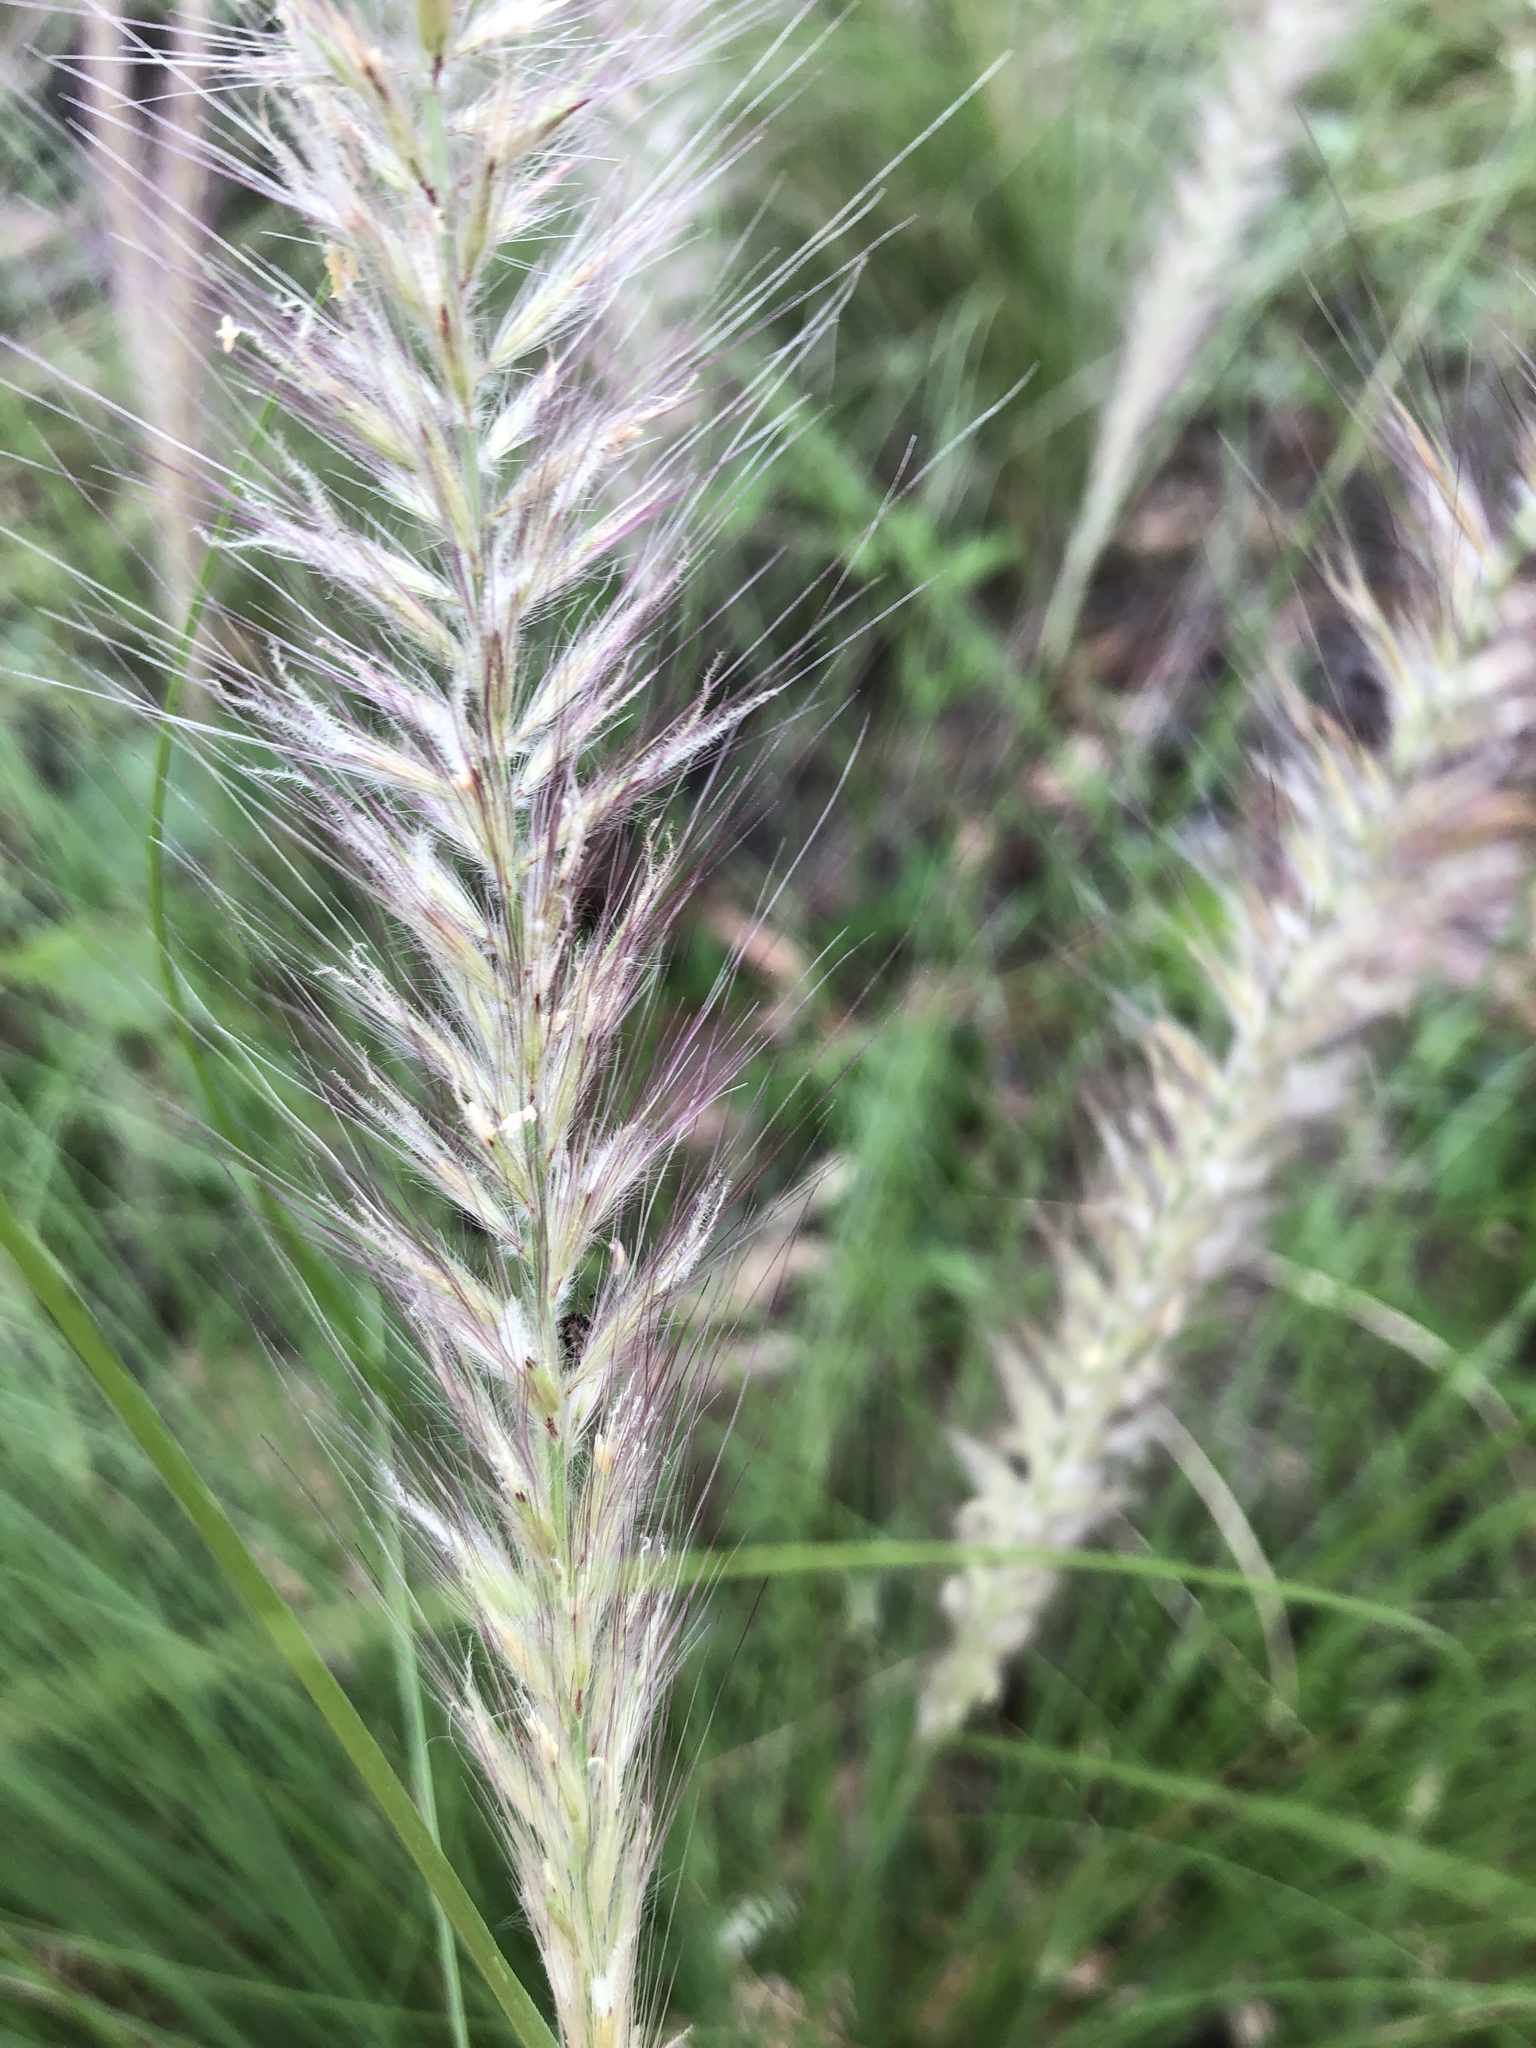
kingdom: Plantae
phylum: Tracheophyta
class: Liliopsida
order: Poales
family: Poaceae
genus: Cenchrus
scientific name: Cenchrus setaceus
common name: Crimson fountaingrass
